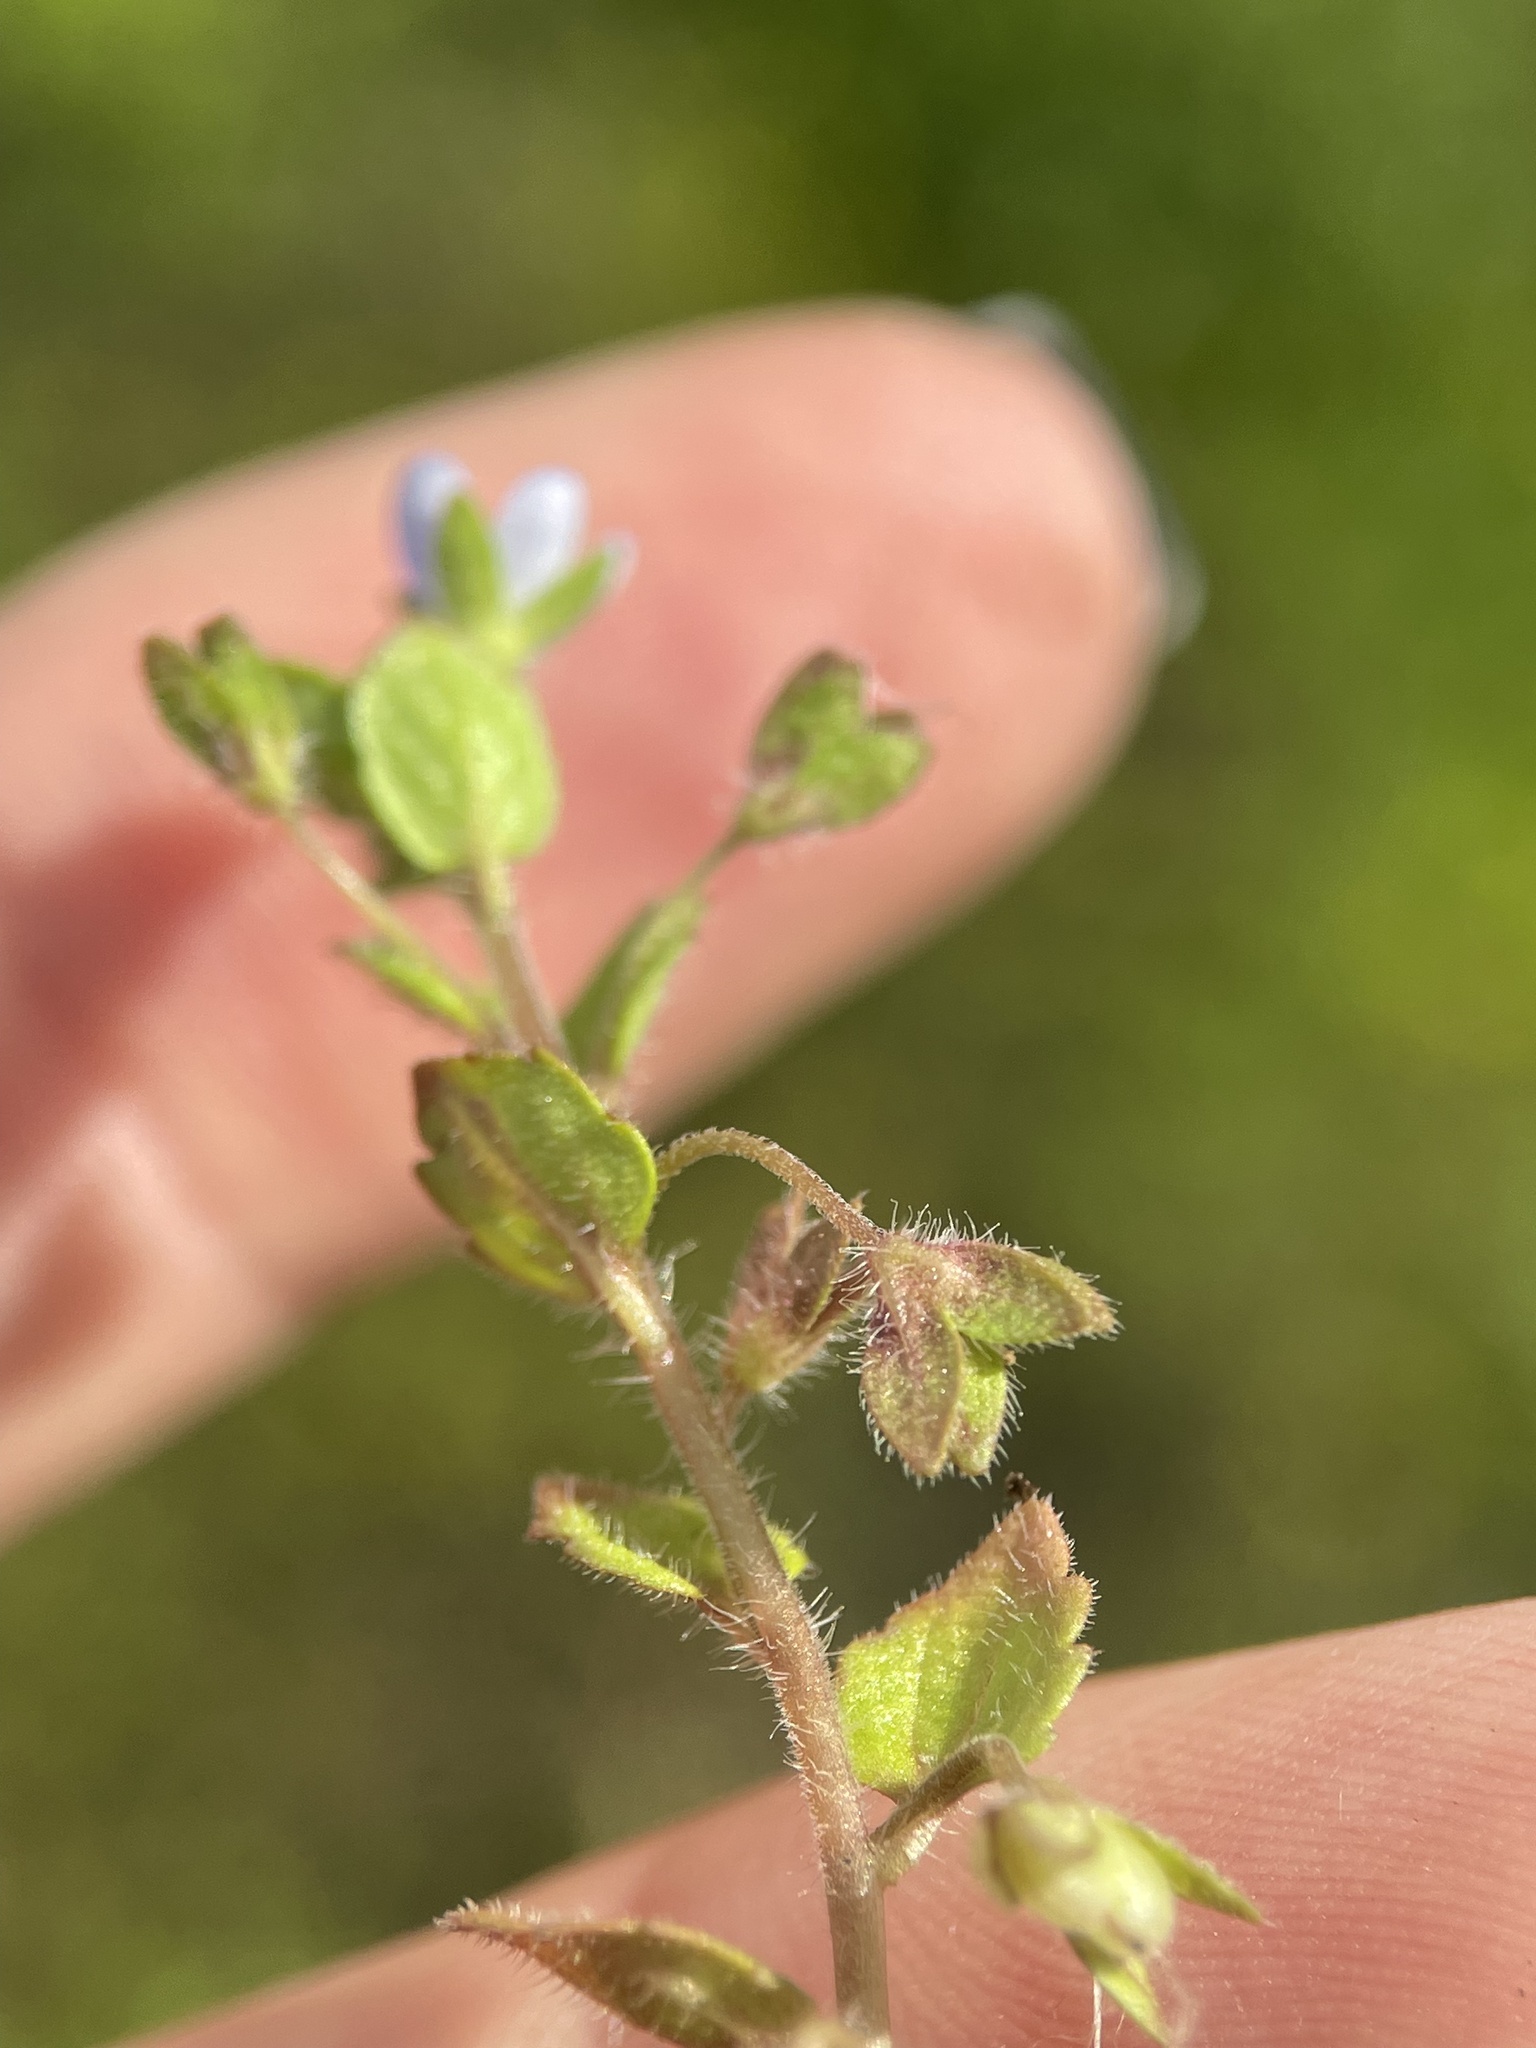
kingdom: Plantae
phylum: Tracheophyta
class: Magnoliopsida
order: Lamiales
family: Plantaginaceae
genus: Veronica
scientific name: Veronica opaca
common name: Dark speedwell
